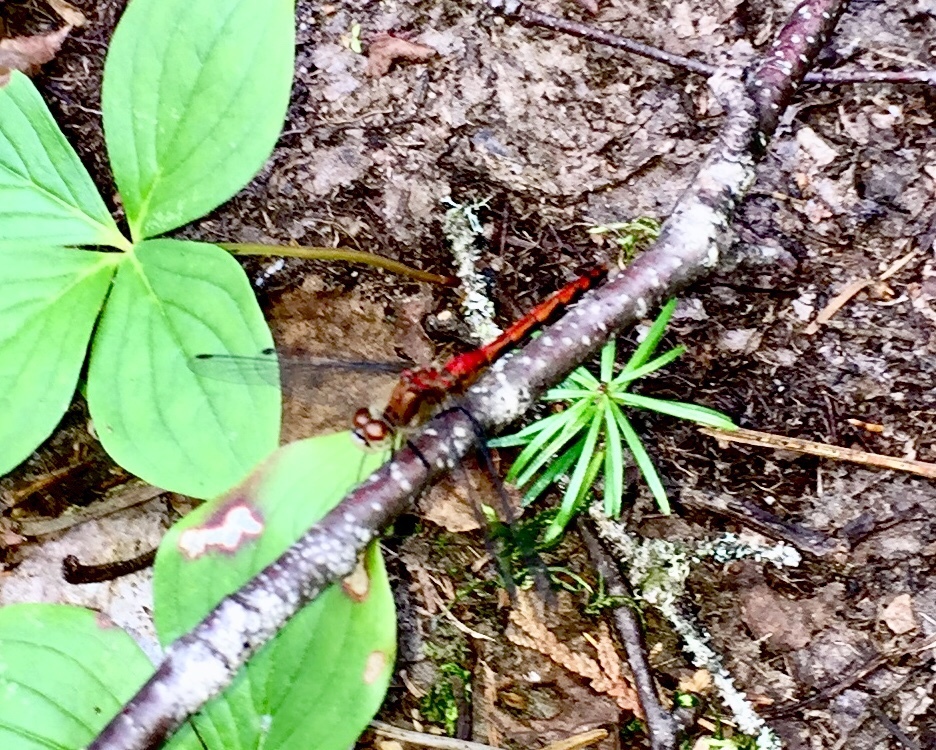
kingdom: Animalia
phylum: Arthropoda
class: Insecta
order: Odonata
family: Libellulidae
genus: Sympetrum
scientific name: Sympetrum obtrusum
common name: White-faced meadowhawk
